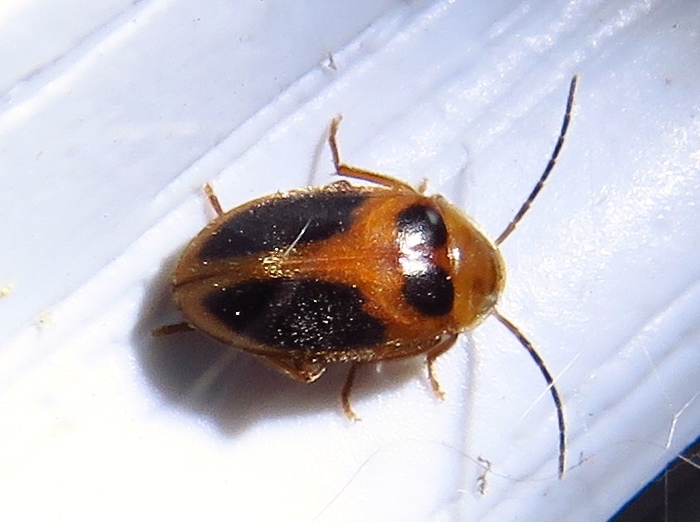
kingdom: Animalia
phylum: Arthropoda
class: Insecta
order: Coleoptera
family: Scirtidae
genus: Sacodes
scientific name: Sacodes pulchella
